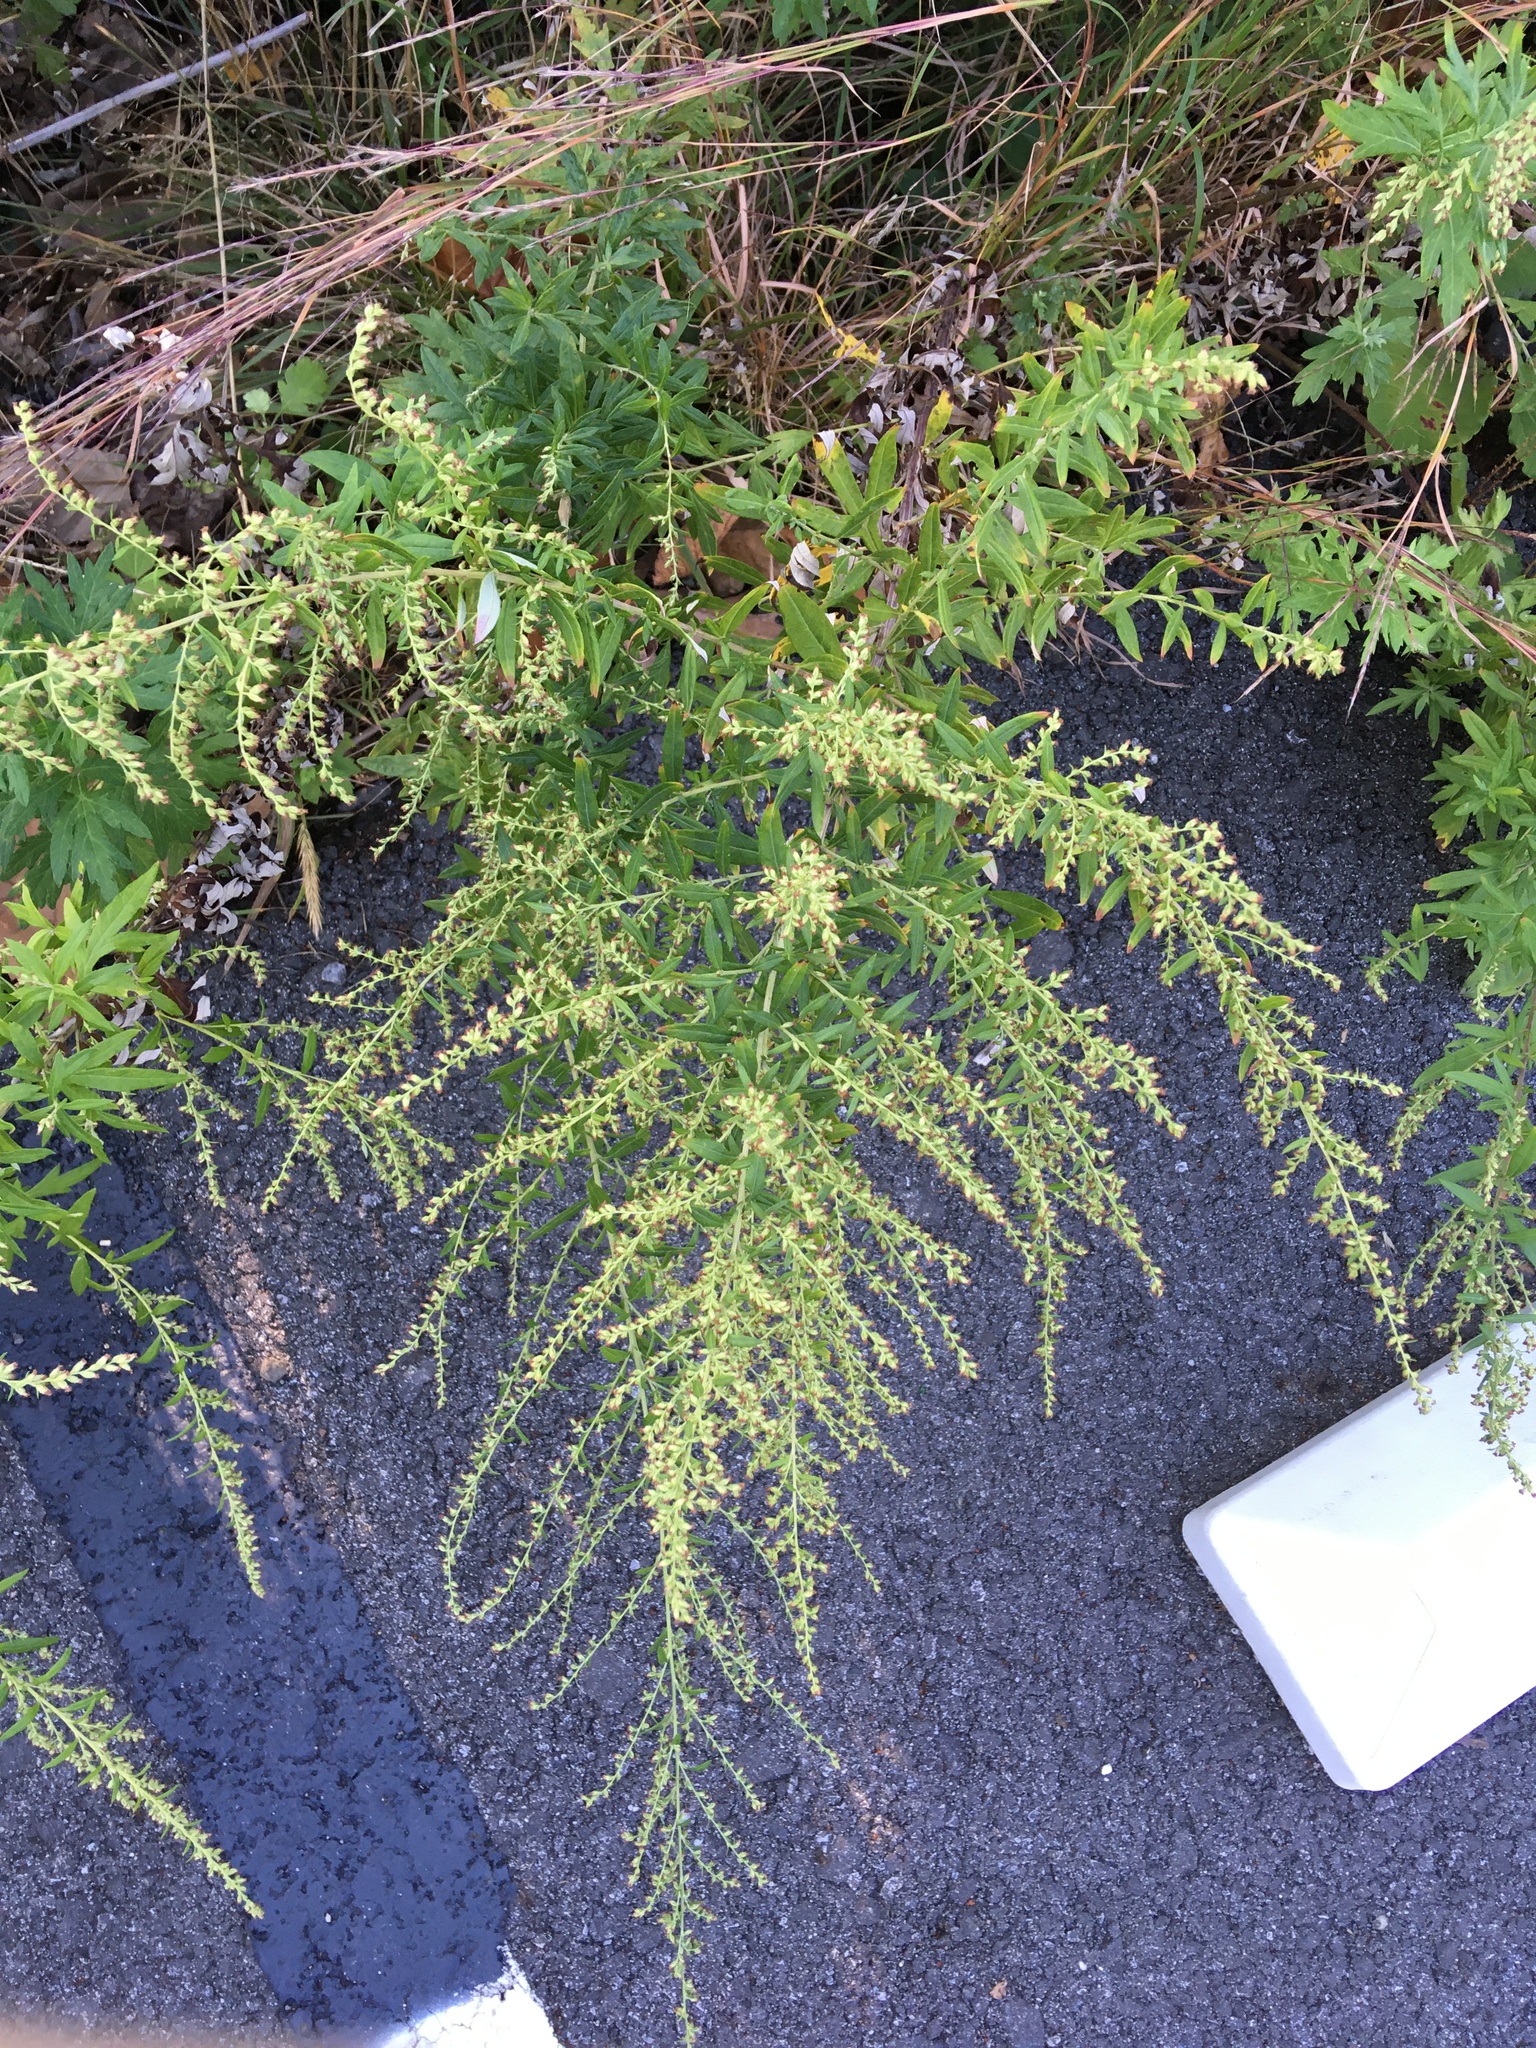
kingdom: Plantae
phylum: Tracheophyta
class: Magnoliopsida
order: Asterales
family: Asteraceae
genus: Artemisia
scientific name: Artemisia vulgaris
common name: Mugwort
